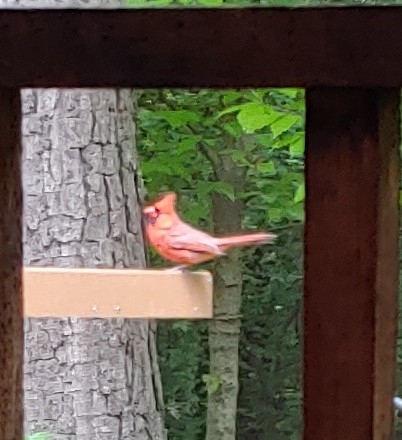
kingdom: Animalia
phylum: Chordata
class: Aves
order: Passeriformes
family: Cardinalidae
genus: Cardinalis
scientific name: Cardinalis cardinalis
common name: Northern cardinal
